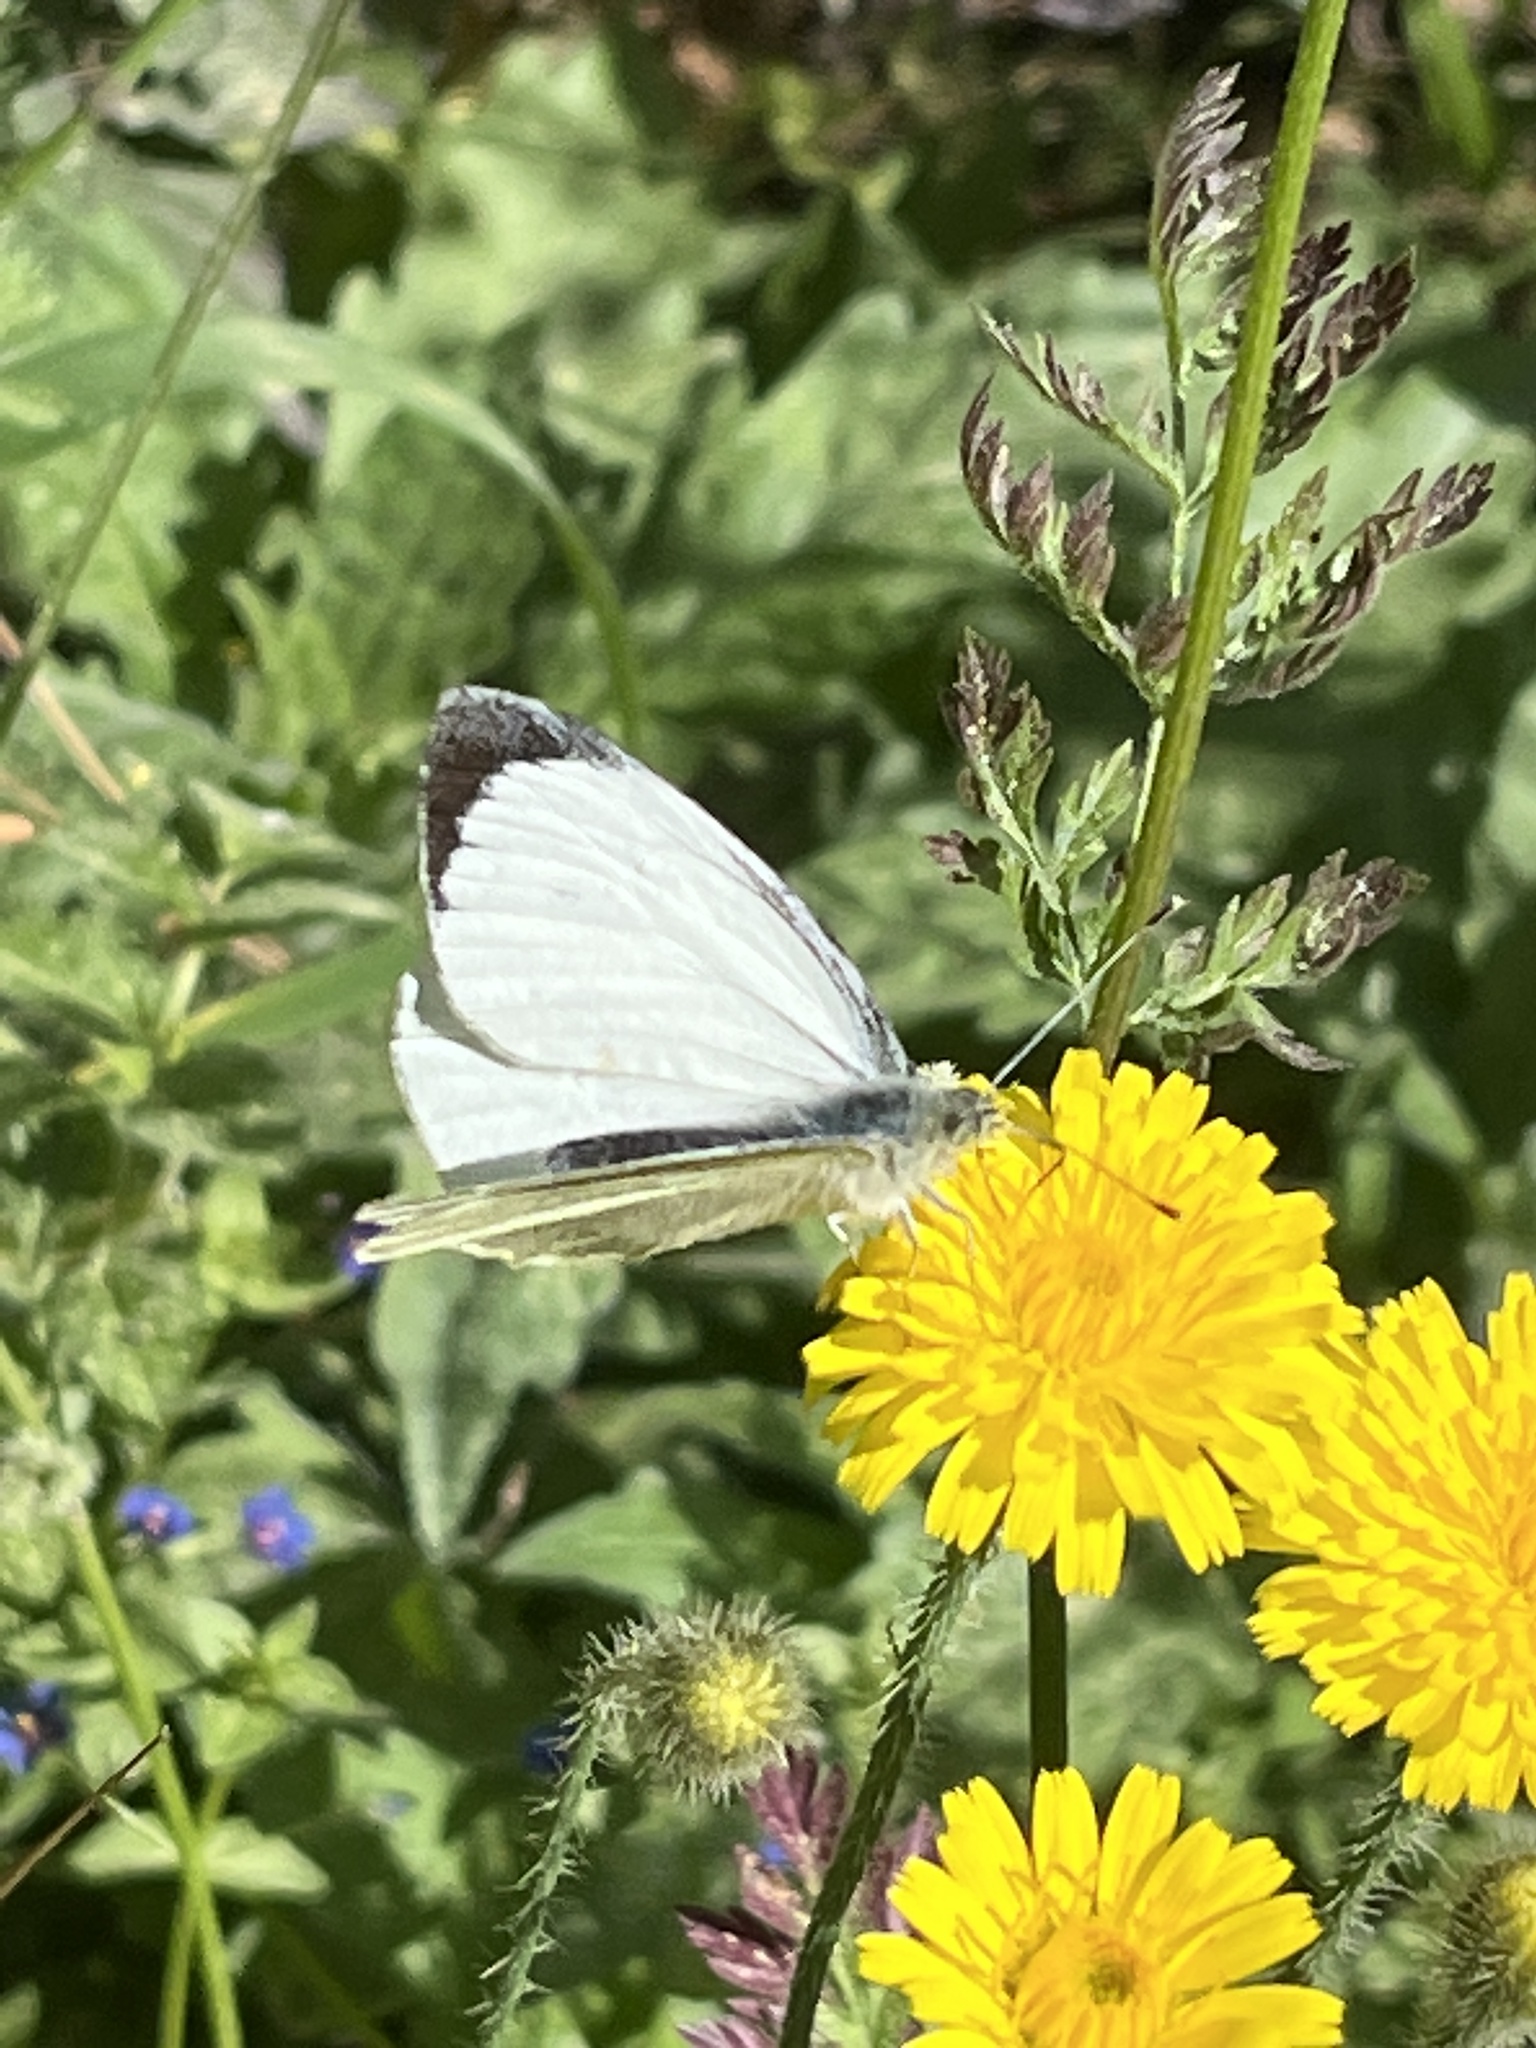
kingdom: Animalia
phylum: Arthropoda
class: Insecta
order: Lepidoptera
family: Pieridae
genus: Pieris
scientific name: Pieris brassicae
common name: Large white
